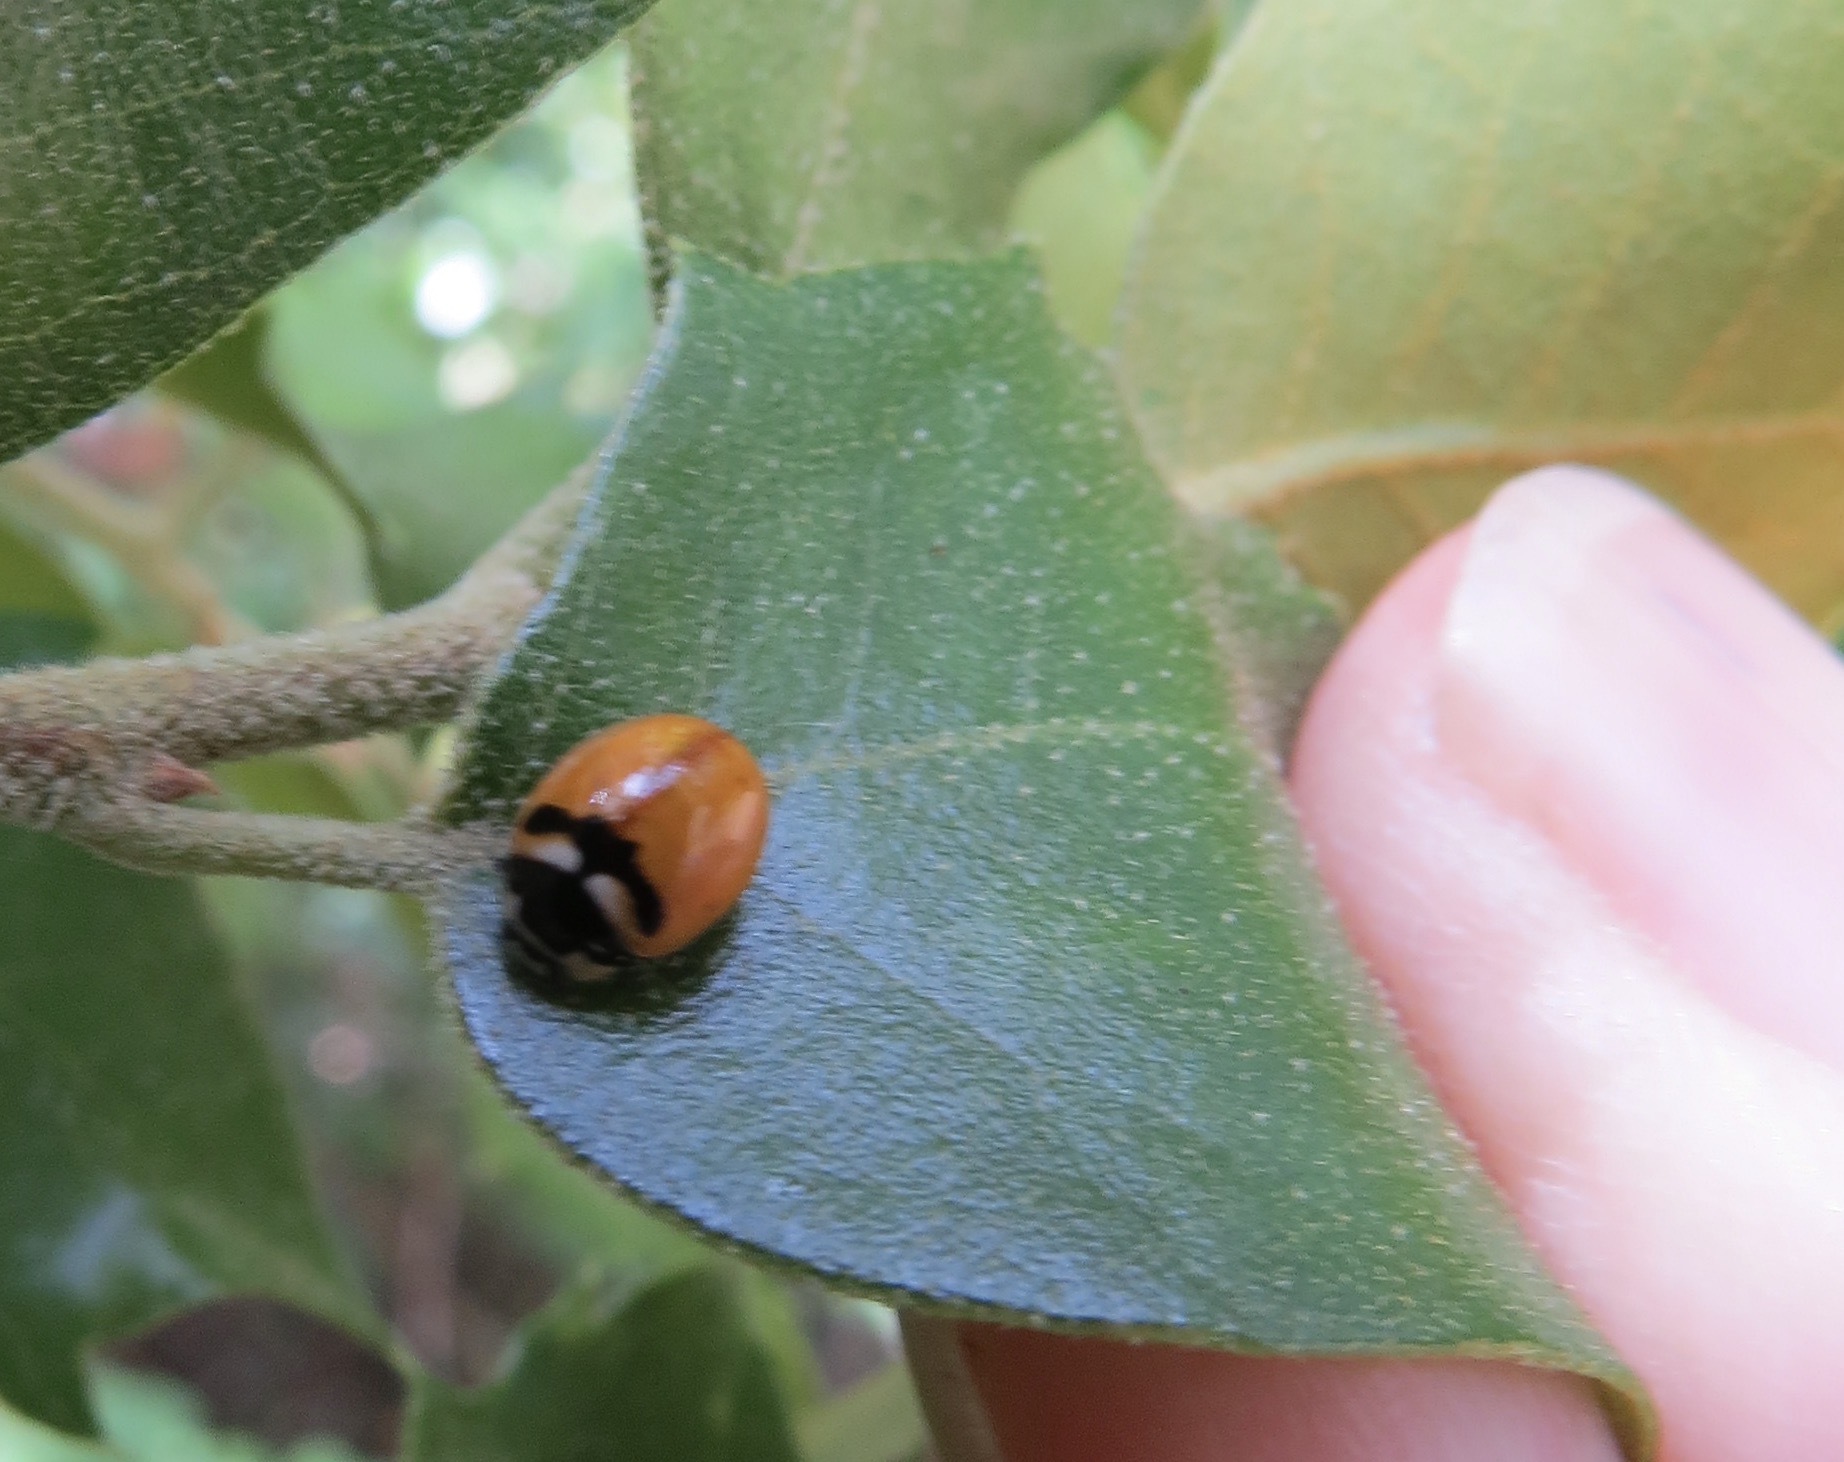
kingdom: Animalia
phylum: Arthropoda
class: Insecta
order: Coleoptera
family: Coccinellidae
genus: Coccinella
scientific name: Coccinella trifasciata
